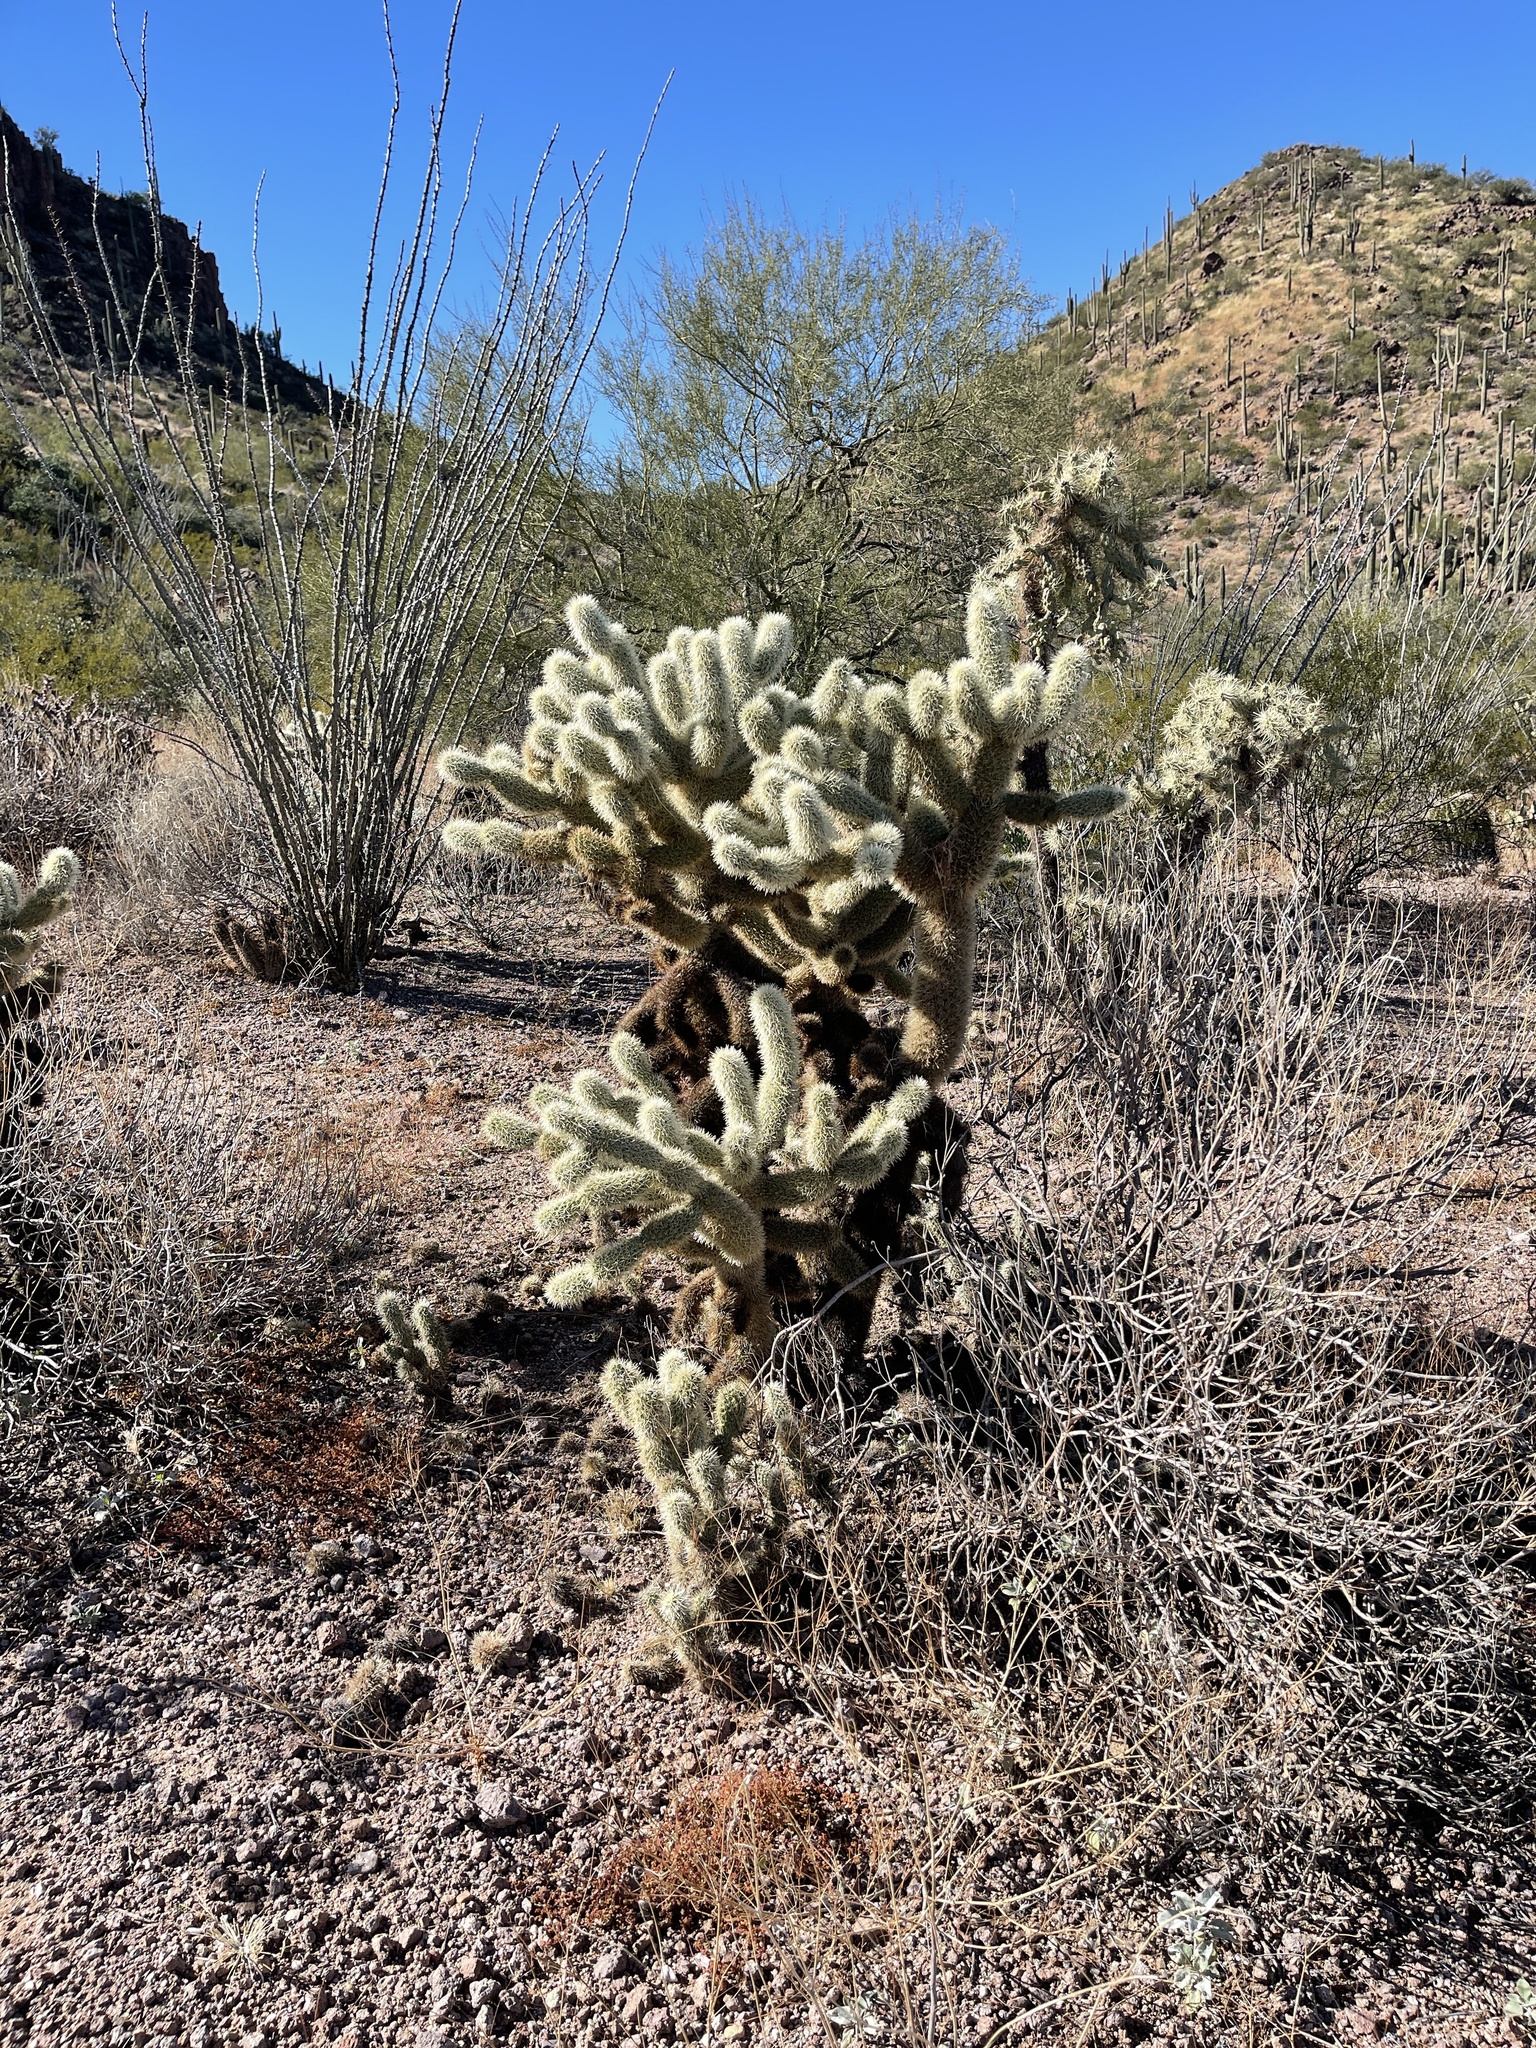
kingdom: Plantae
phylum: Tracheophyta
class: Magnoliopsida
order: Caryophyllales
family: Cactaceae
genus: Cylindropuntia
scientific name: Cylindropuntia fosbergii
